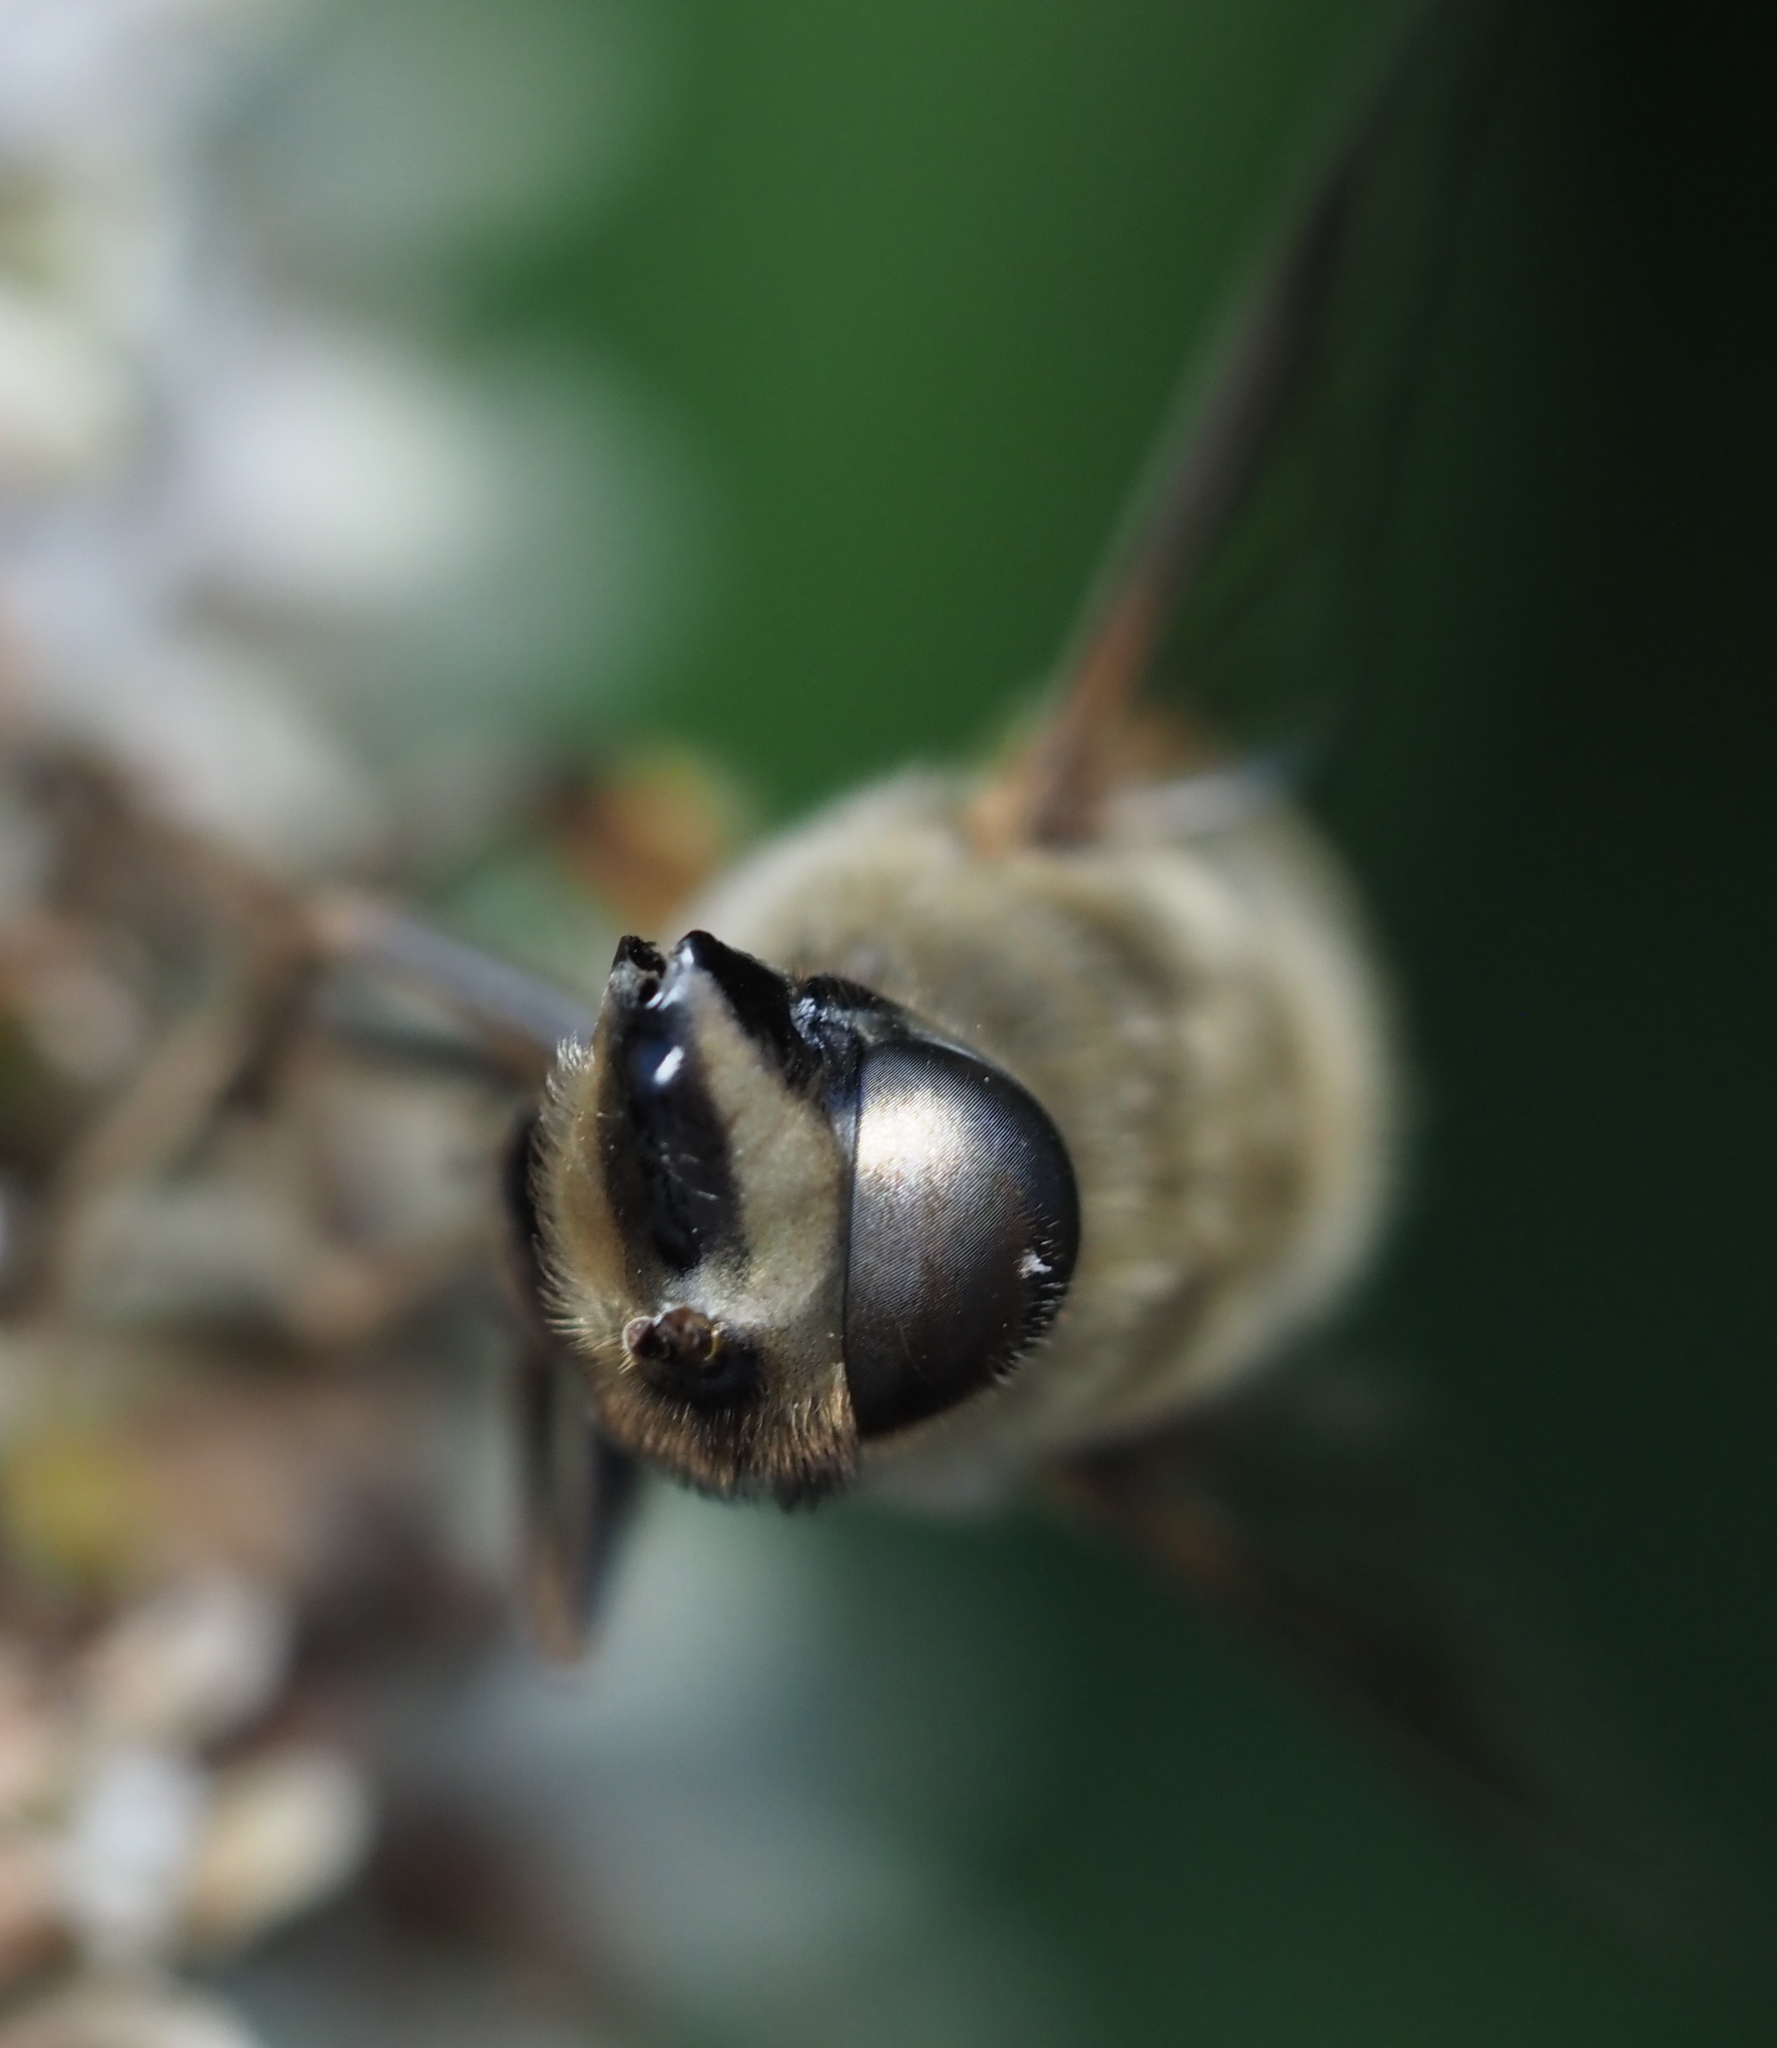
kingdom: Animalia
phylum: Arthropoda
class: Insecta
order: Diptera
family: Syrphidae
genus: Eristalis
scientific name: Eristalis tenax
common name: Drone fly
